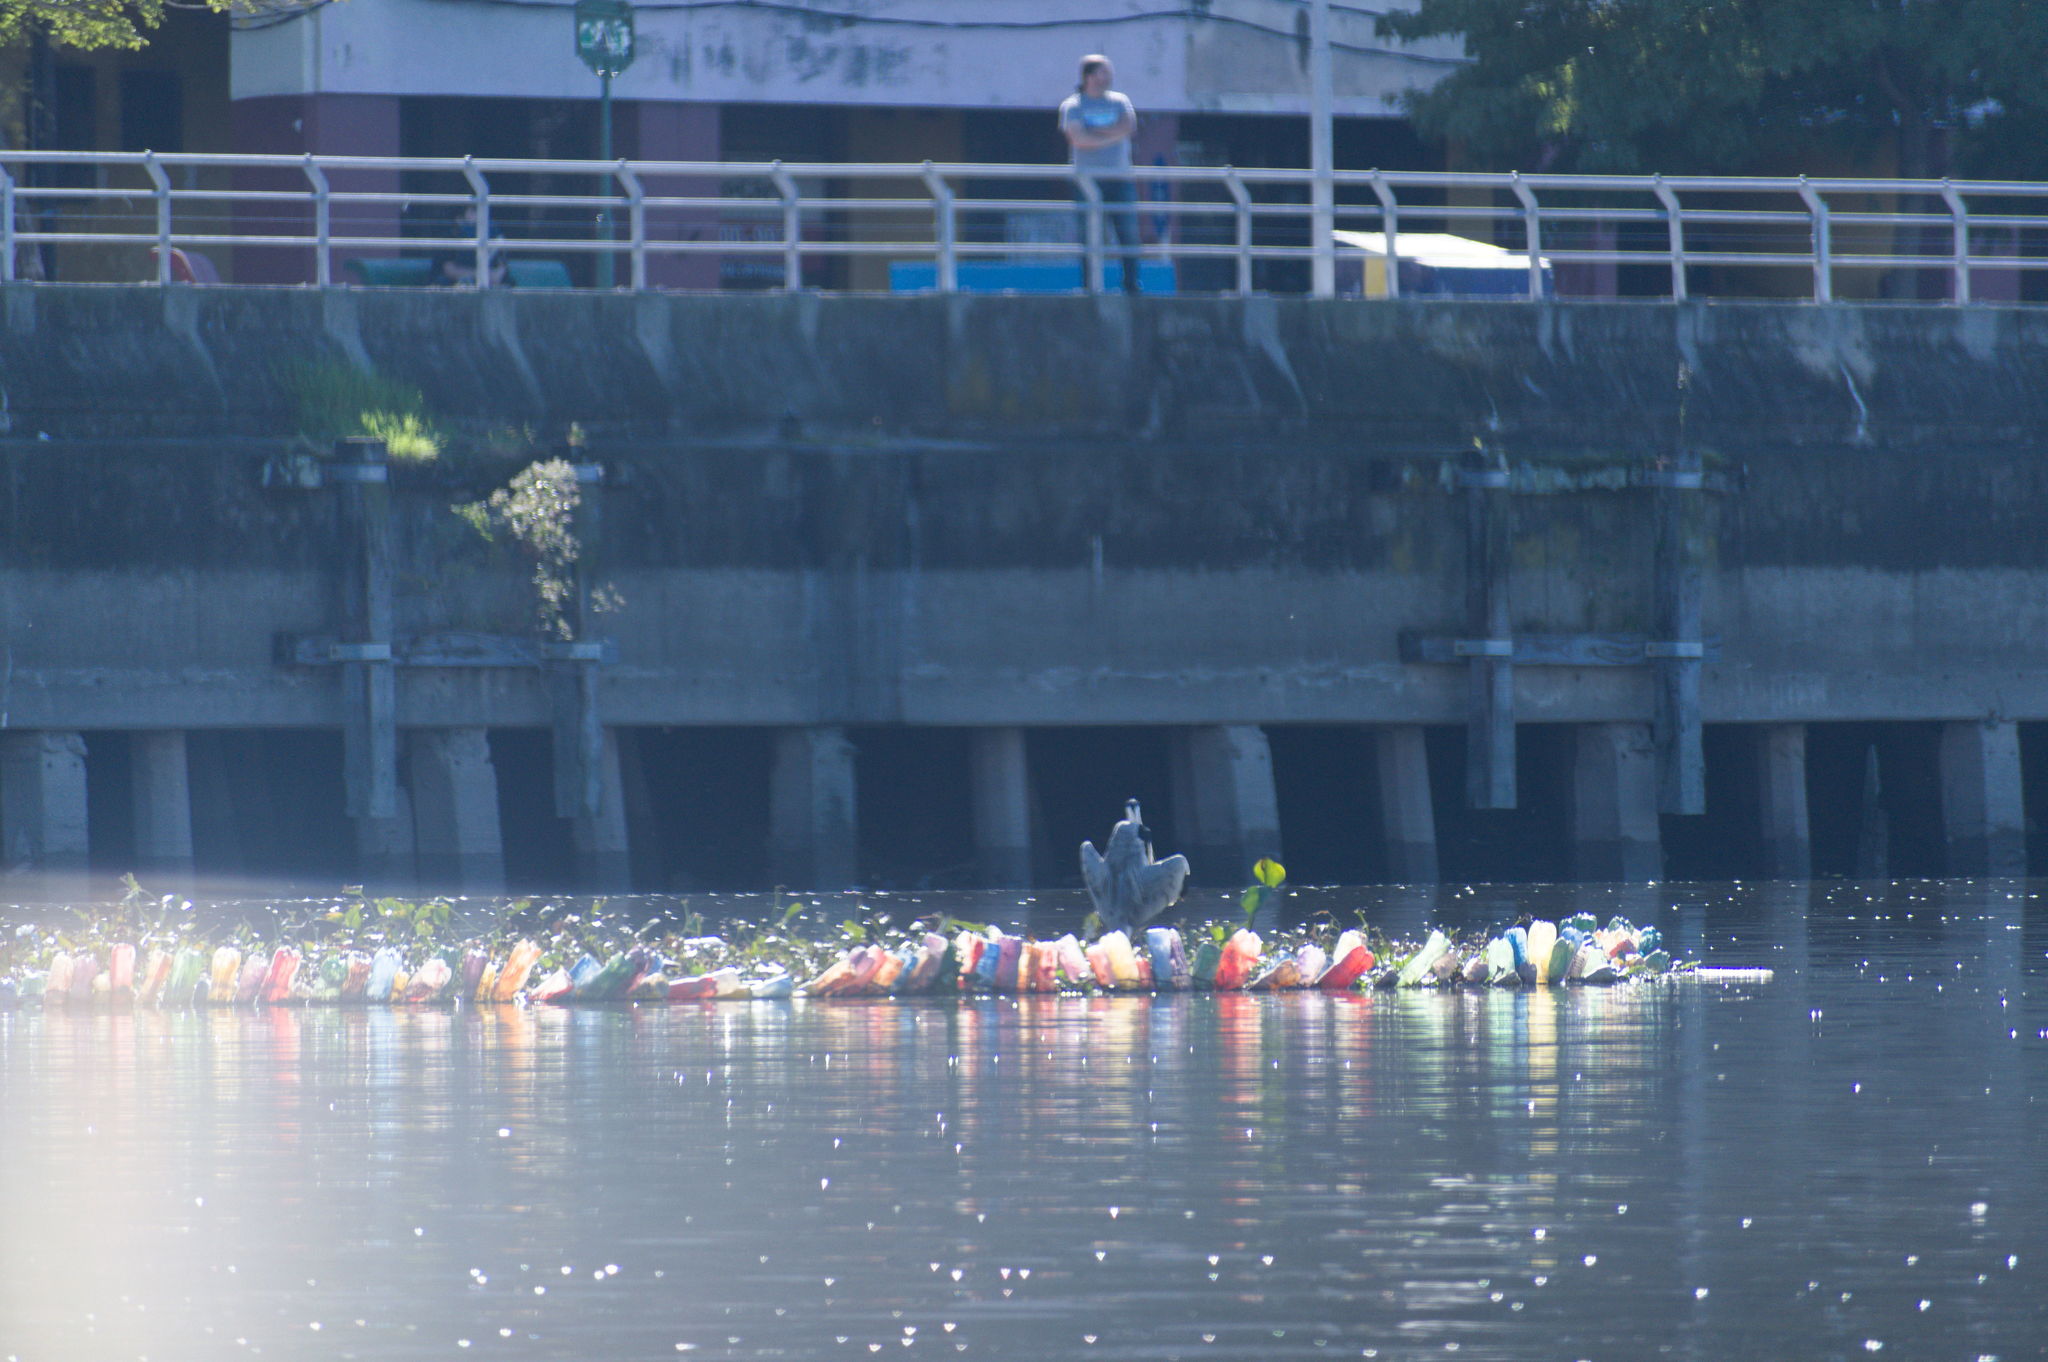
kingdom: Animalia
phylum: Chordata
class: Aves
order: Pelecaniformes
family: Ardeidae
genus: Ardea
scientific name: Ardea cocoi
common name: Cocoi heron
